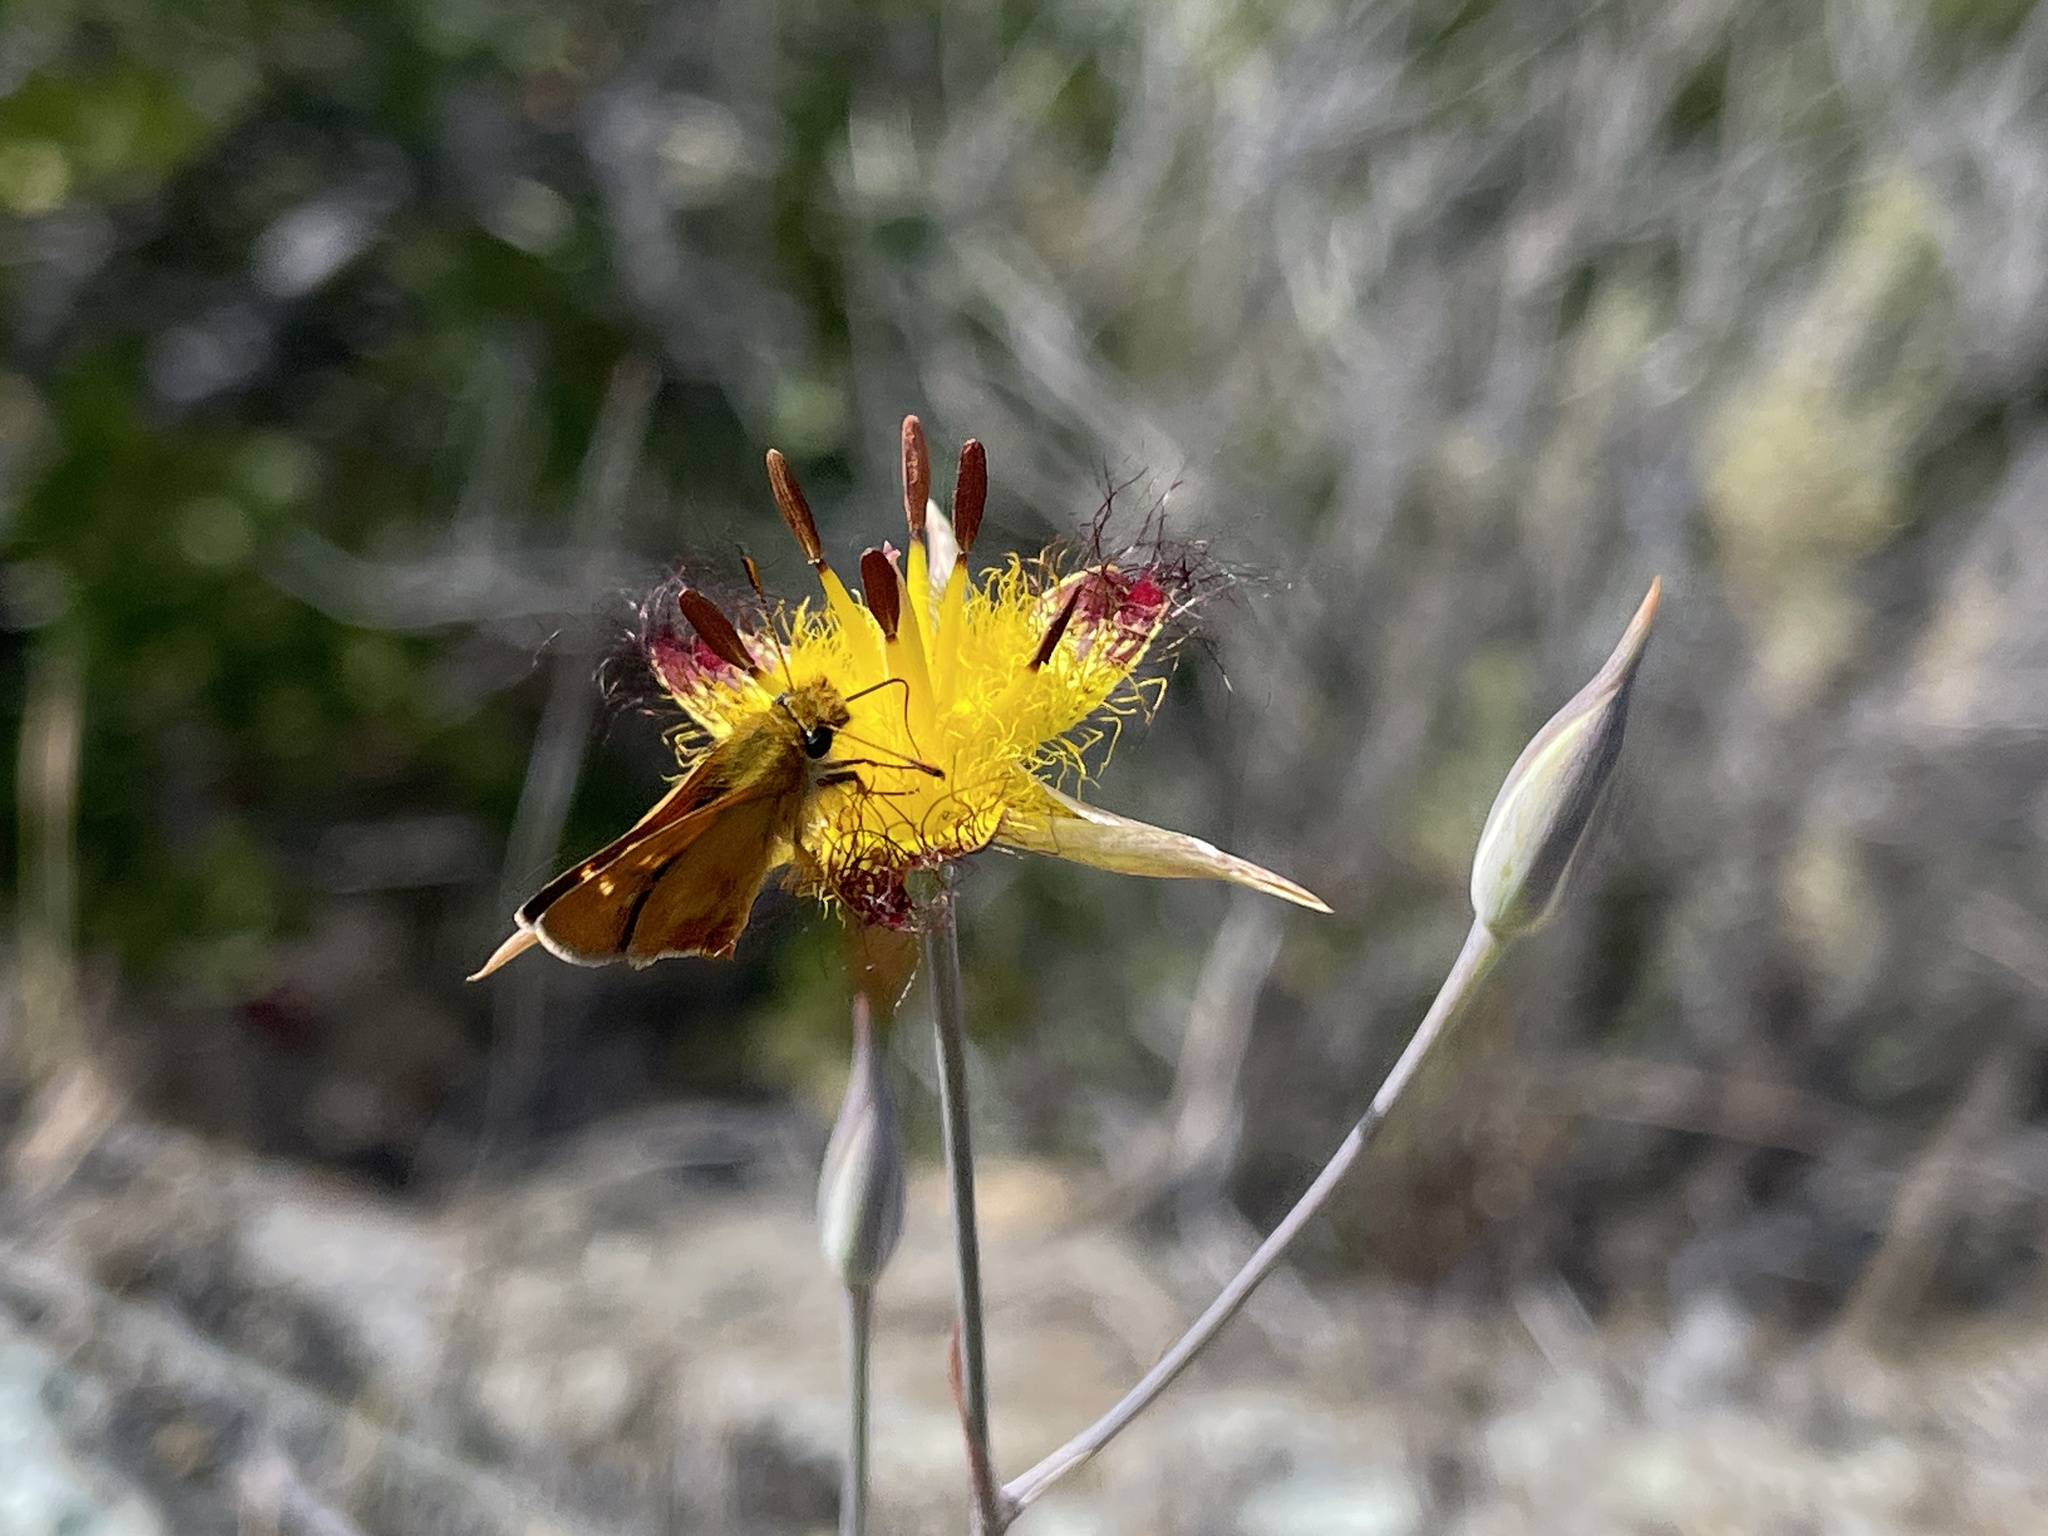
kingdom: Plantae
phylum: Tracheophyta
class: Liliopsida
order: Liliales
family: Liliaceae
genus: Calochortus
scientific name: Calochortus obispoensis
